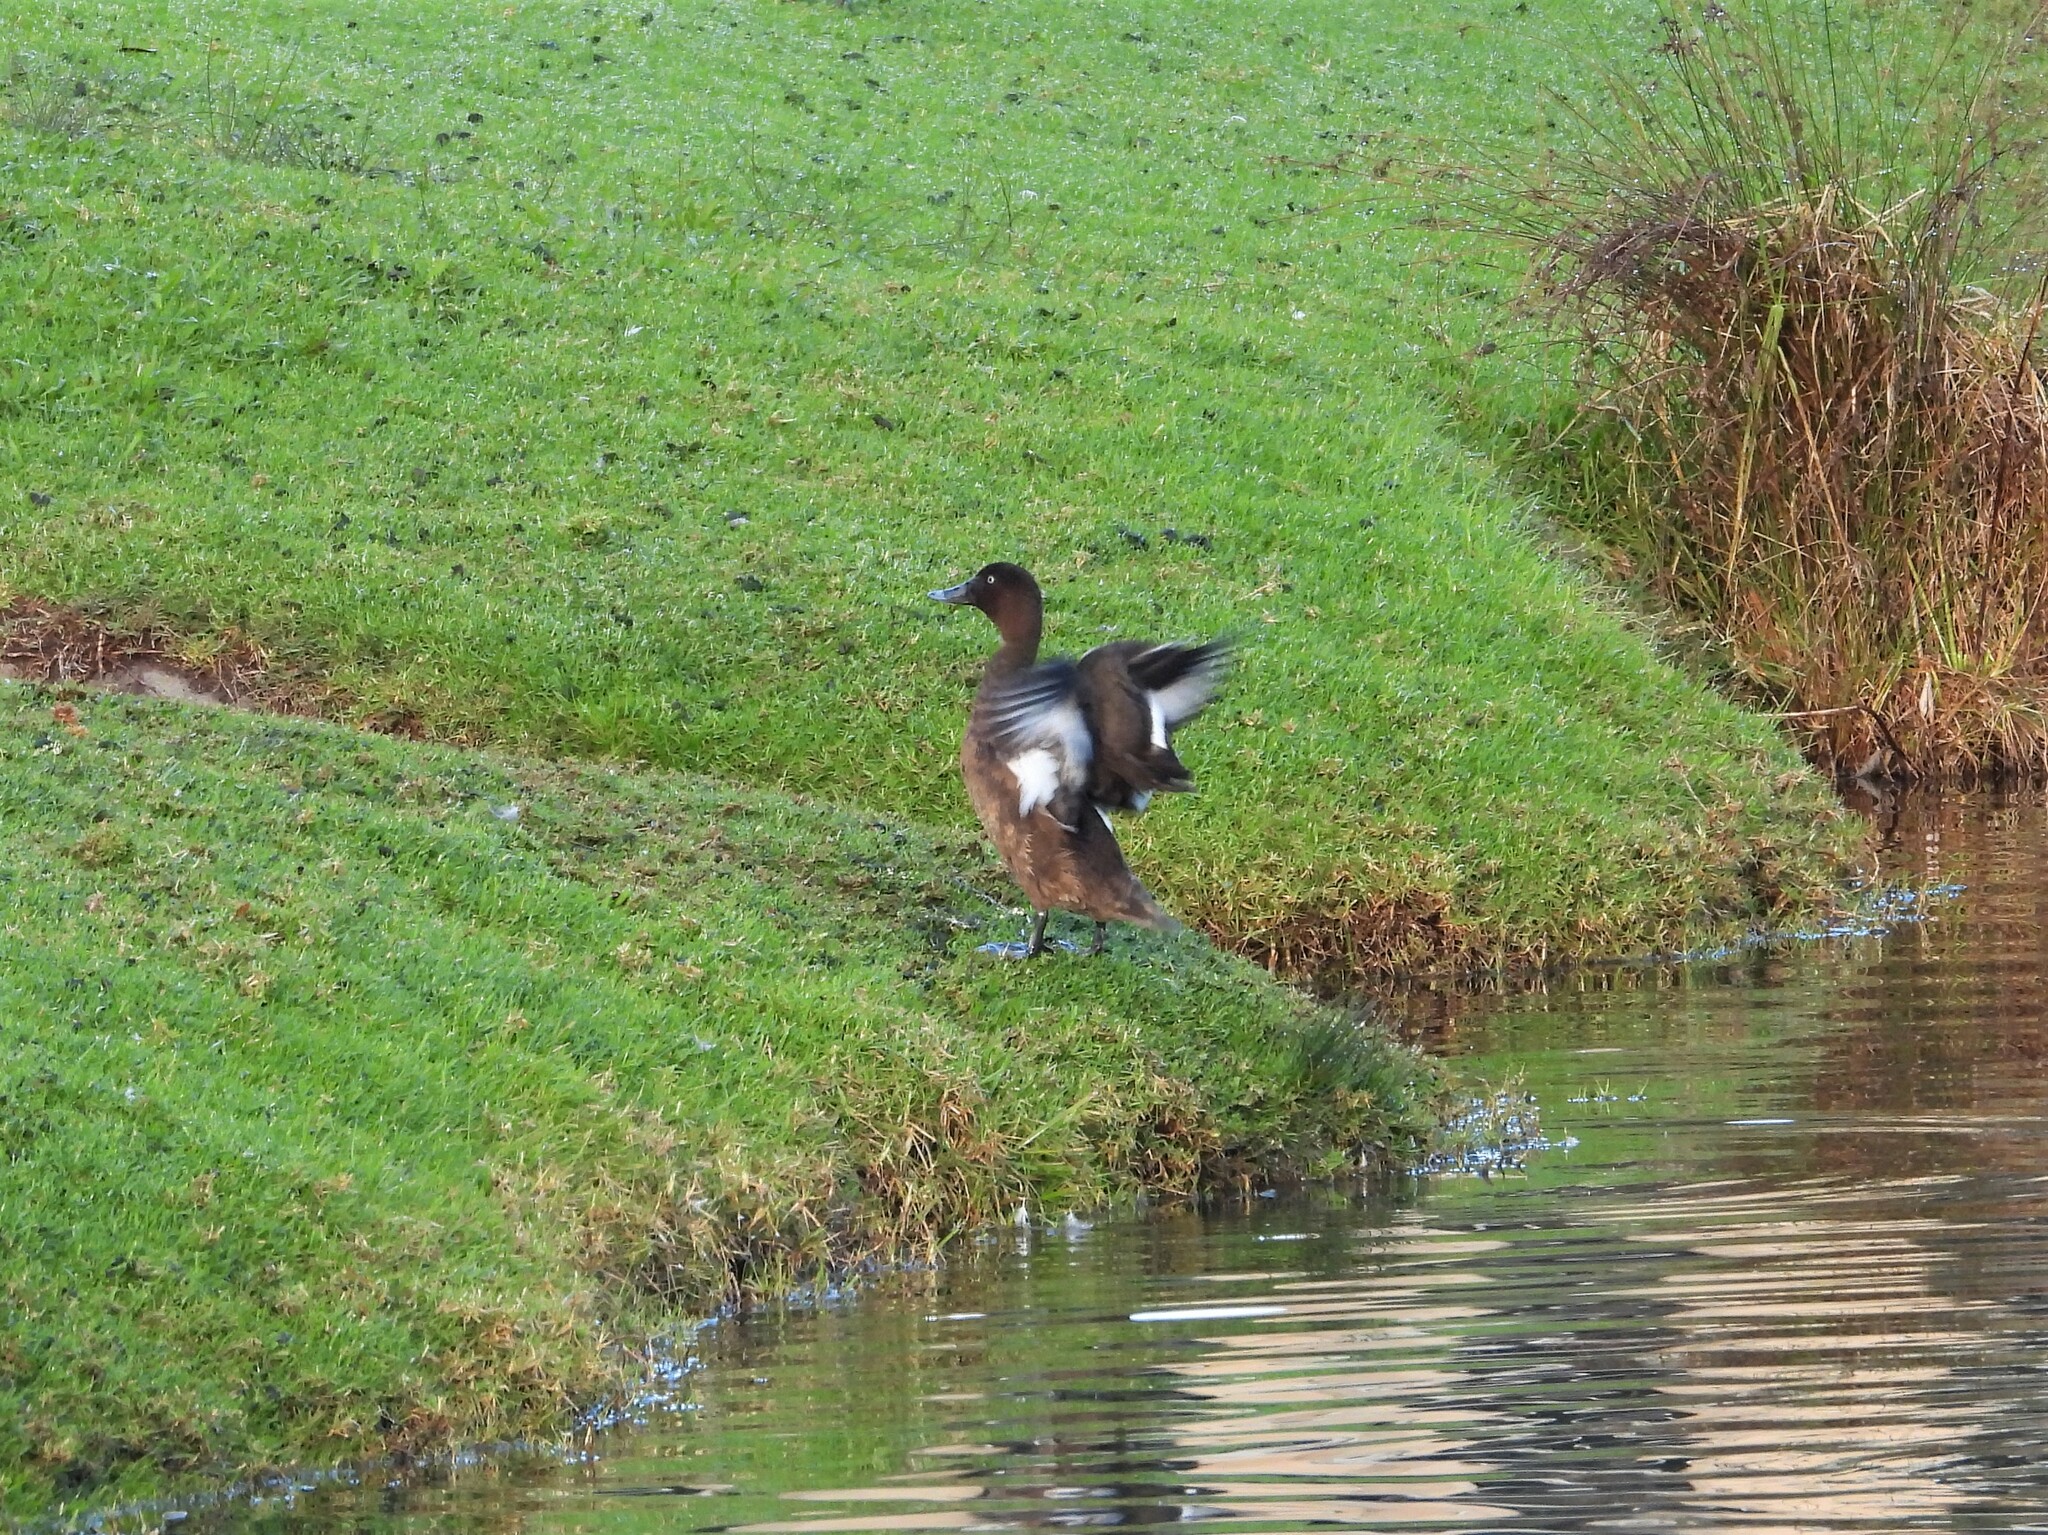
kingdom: Animalia
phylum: Chordata
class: Aves
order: Anseriformes
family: Anatidae
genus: Aythya
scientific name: Aythya australis
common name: Hardhead
